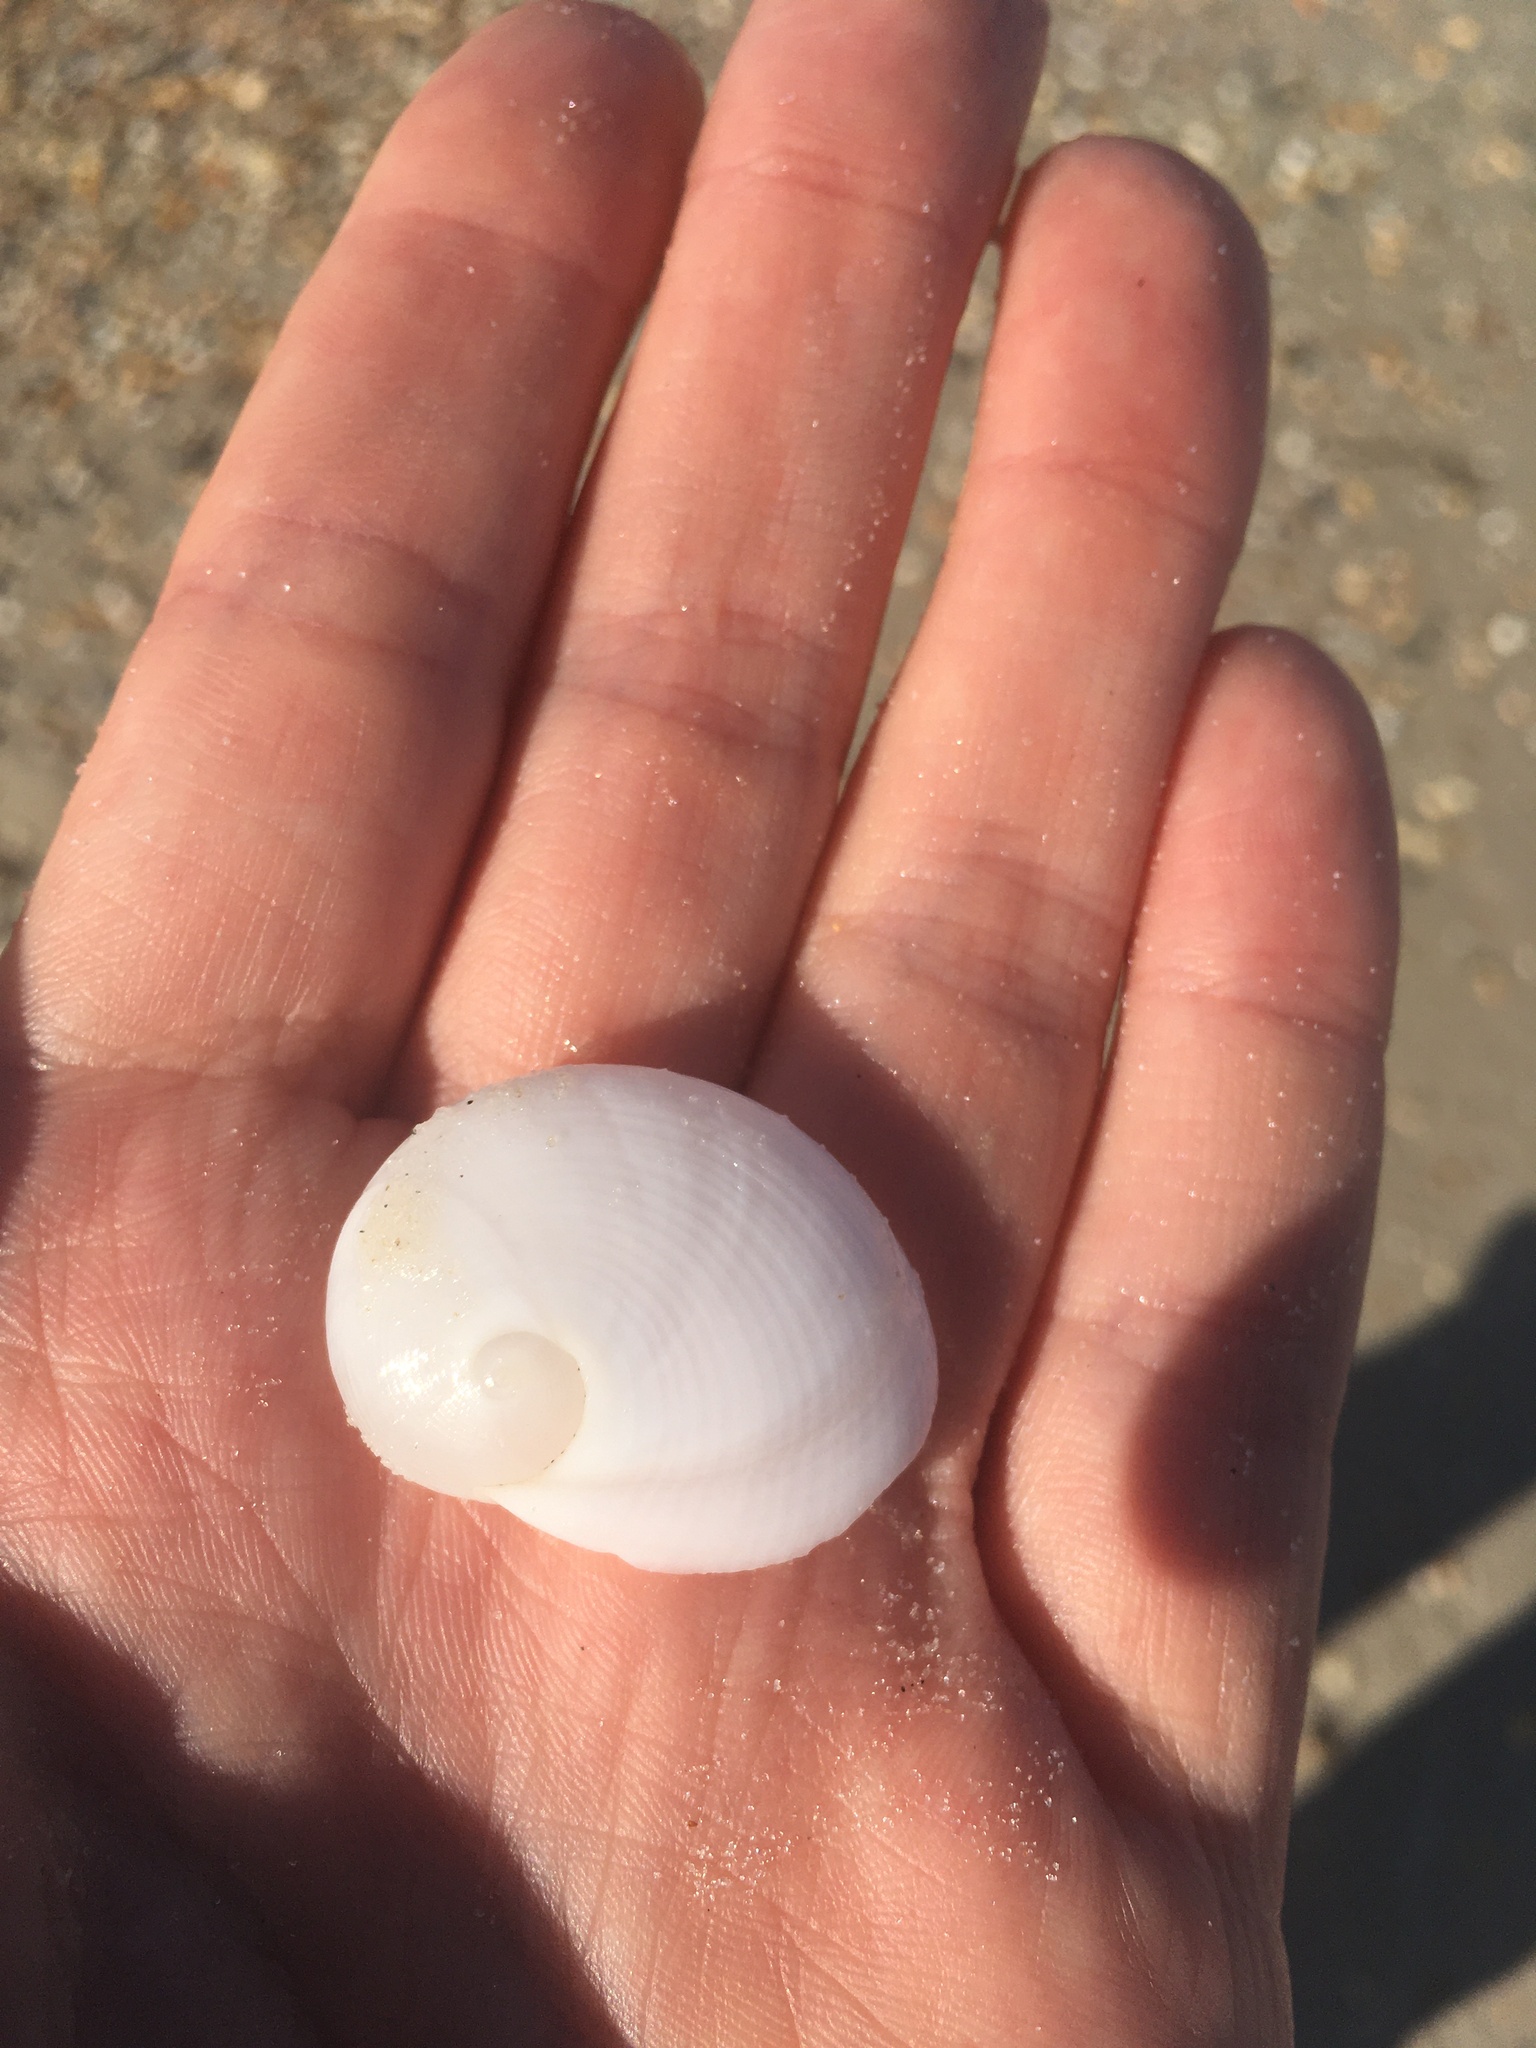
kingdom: Animalia
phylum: Mollusca
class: Gastropoda
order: Littorinimorpha
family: Naticidae
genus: Sinum
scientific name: Sinum perspectivum
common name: White baby ear
